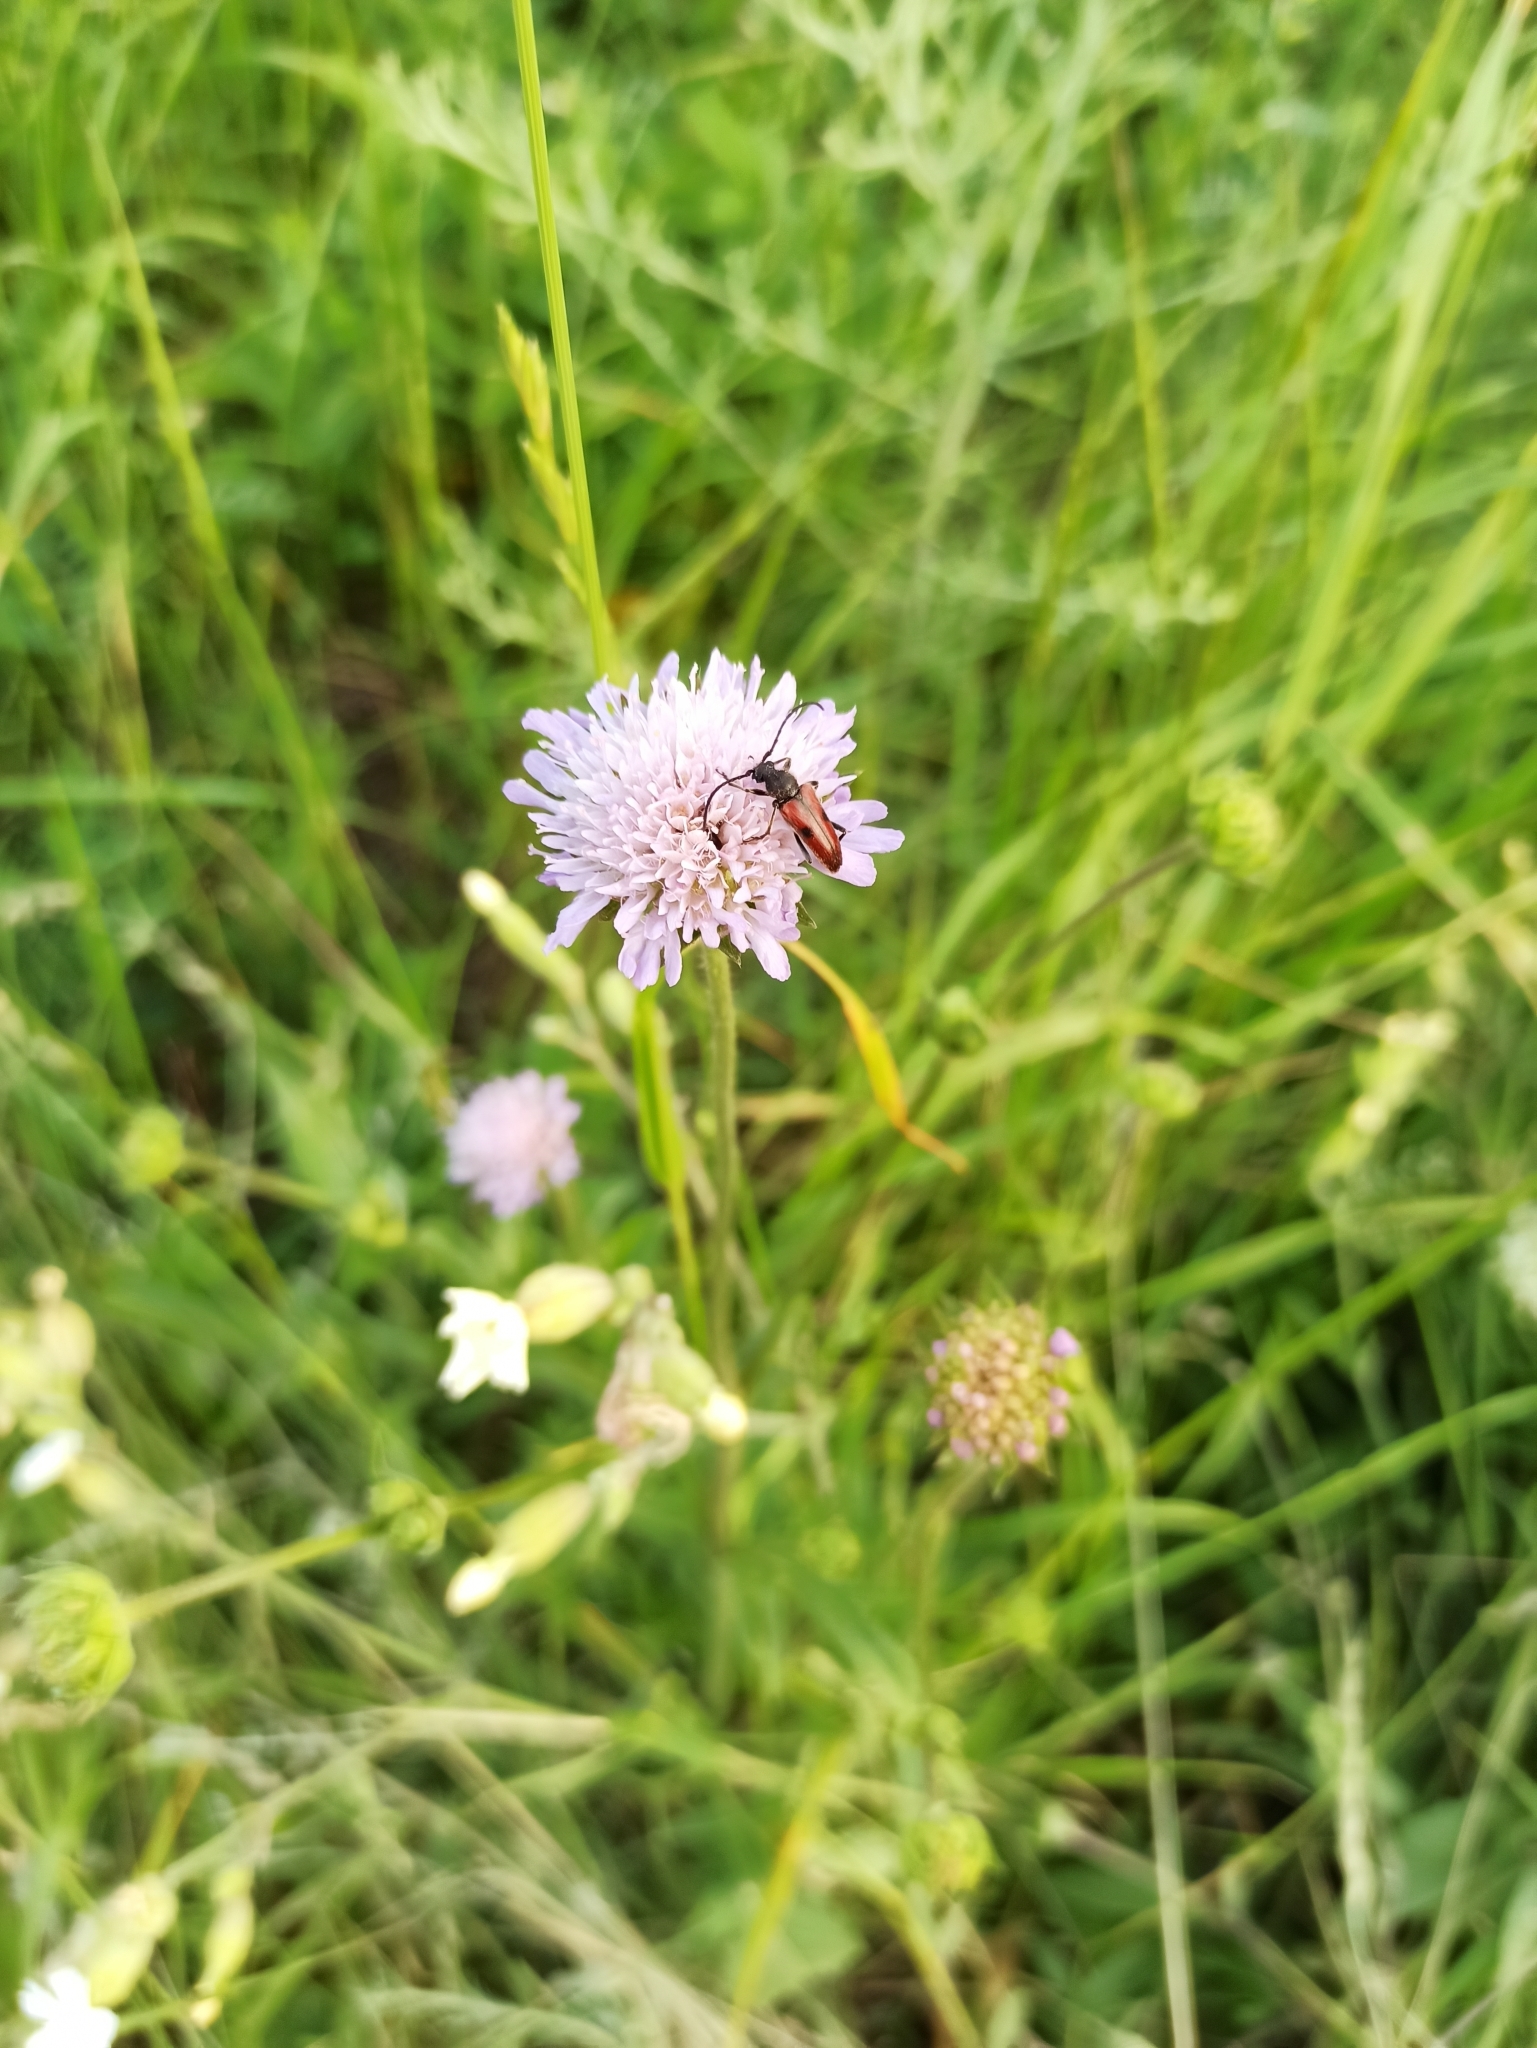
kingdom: Animalia
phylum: Arthropoda
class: Insecta
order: Coleoptera
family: Cerambycidae
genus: Vadonia
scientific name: Vadonia unipunctata
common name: Long-horned beetle
